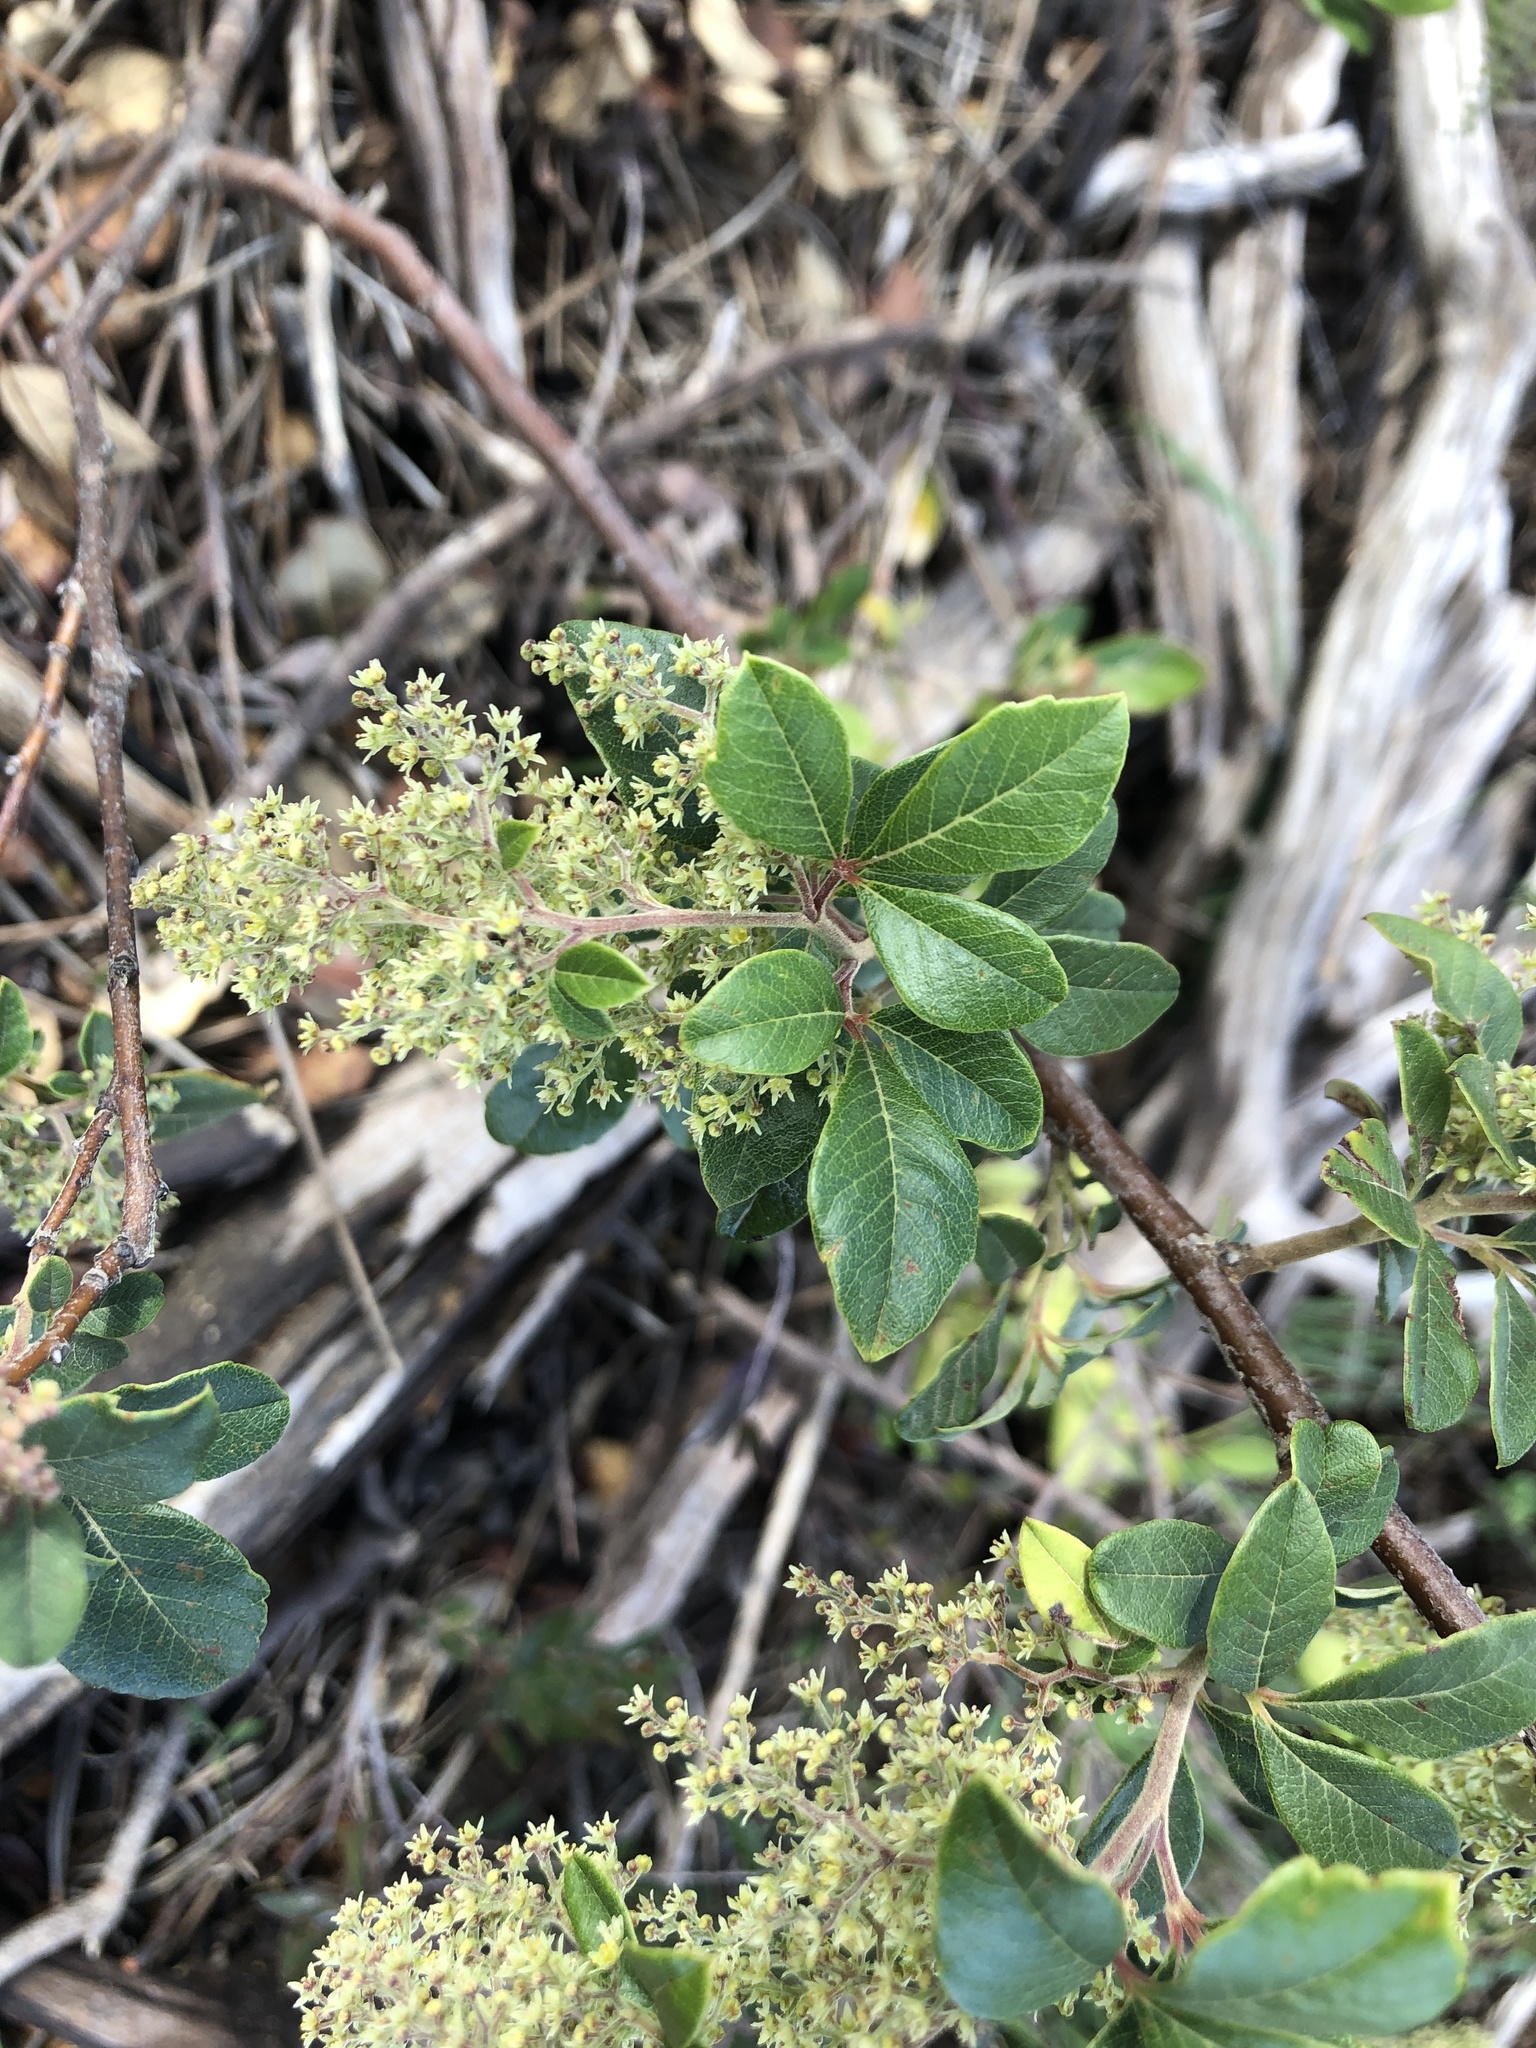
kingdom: Plantae
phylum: Tracheophyta
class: Magnoliopsida
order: Sapindales
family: Anacardiaceae
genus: Searsia
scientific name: Searsia tomentosa
